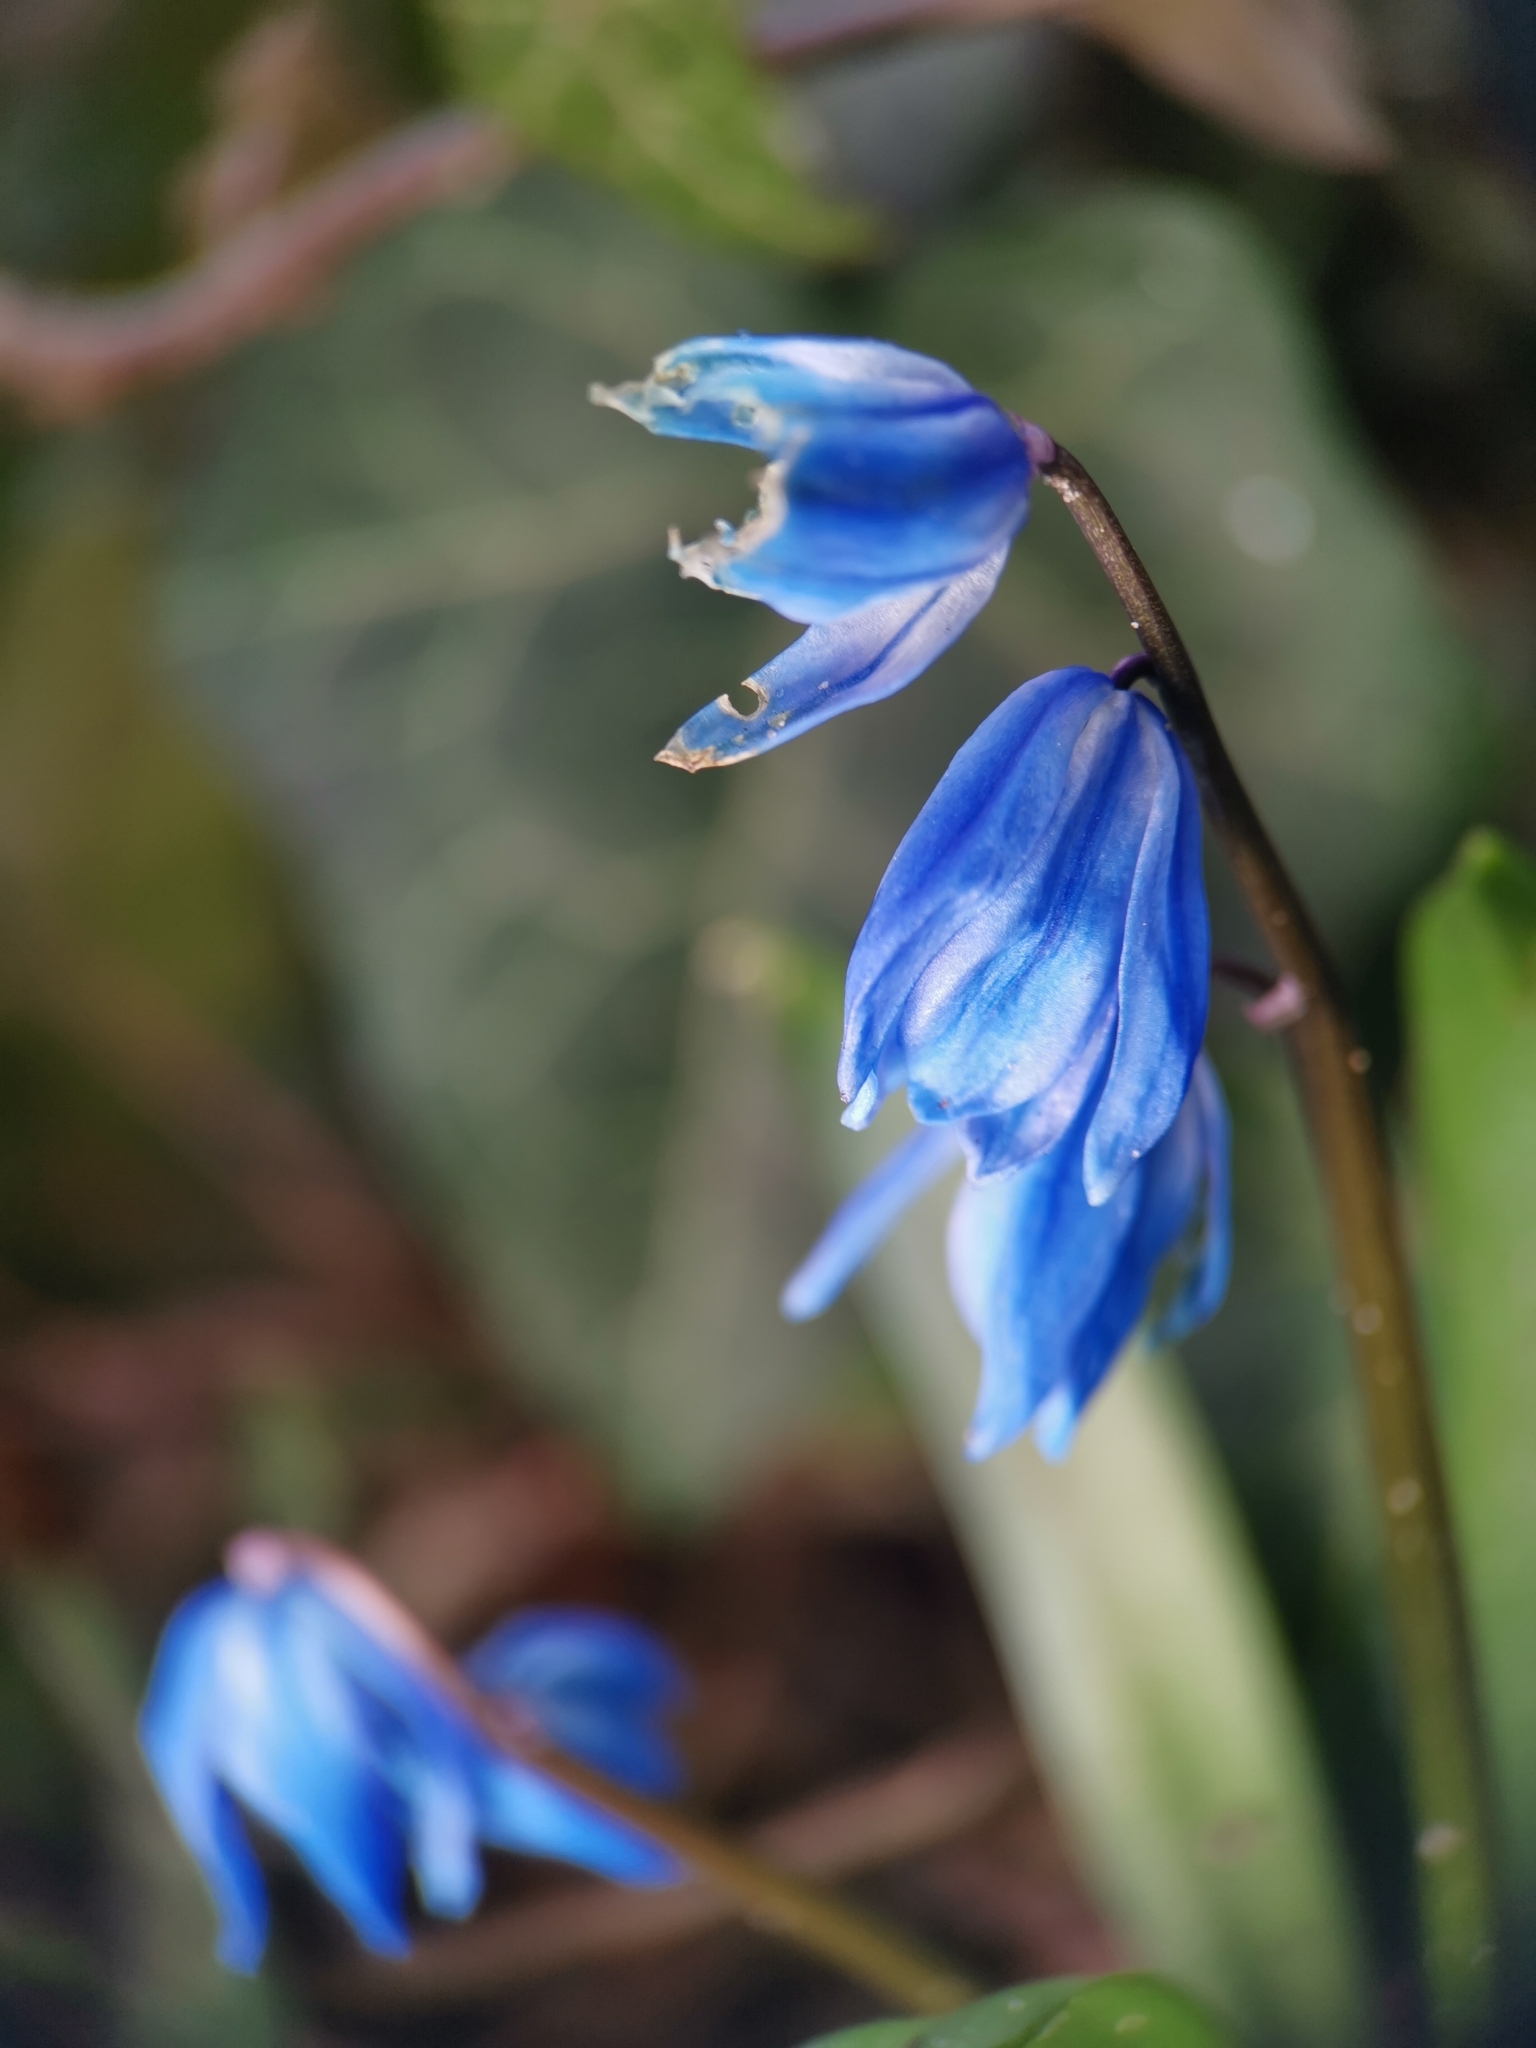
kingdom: Plantae
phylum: Tracheophyta
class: Liliopsida
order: Asparagales
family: Asparagaceae
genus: Scilla
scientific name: Scilla siberica
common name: Siberian squill
